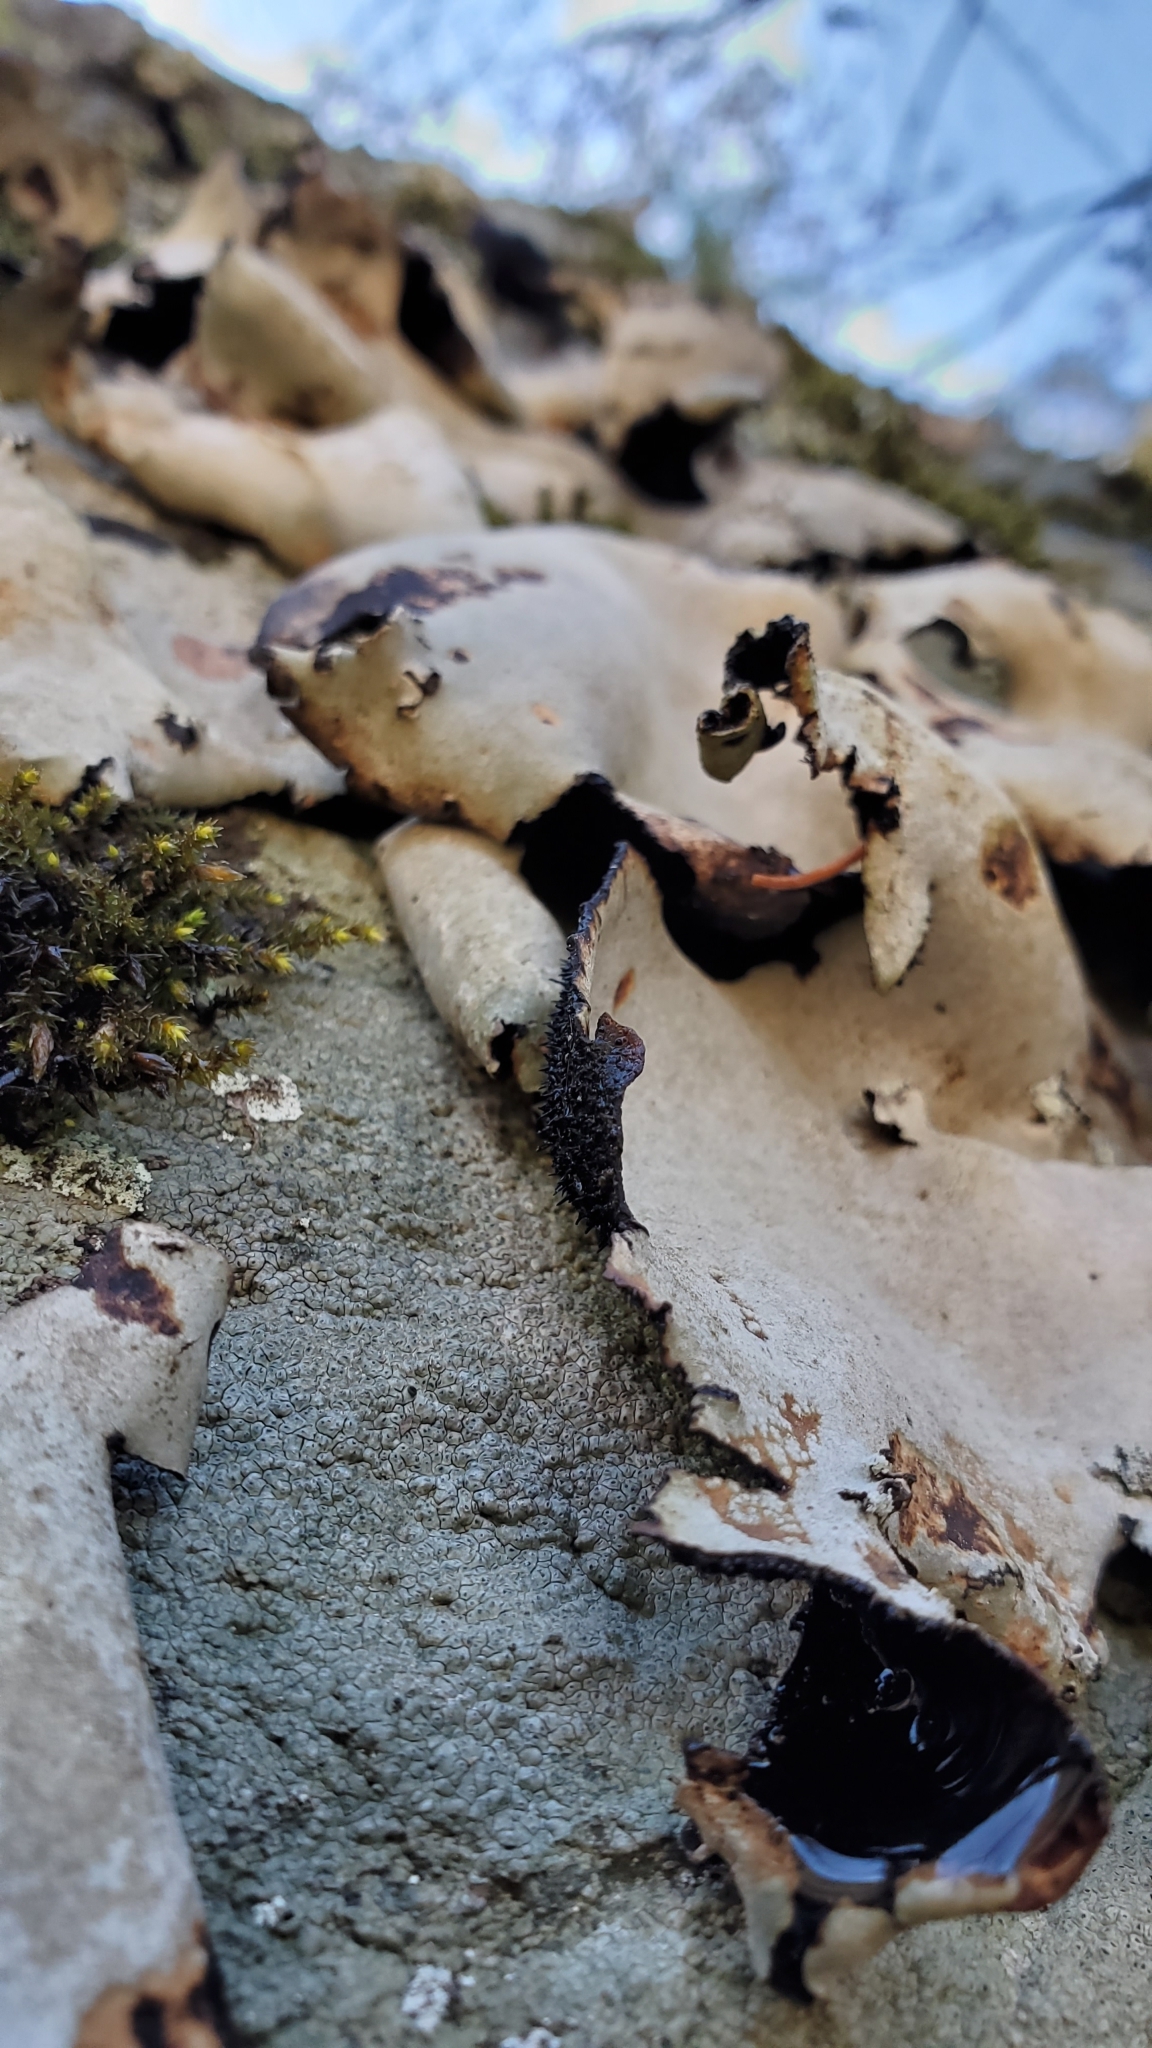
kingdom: Fungi
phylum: Ascomycota
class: Lecanoromycetes
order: Umbilicariales
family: Umbilicariaceae
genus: Umbilicaria
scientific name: Umbilicaria mammulata
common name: Smooth rock tripe
